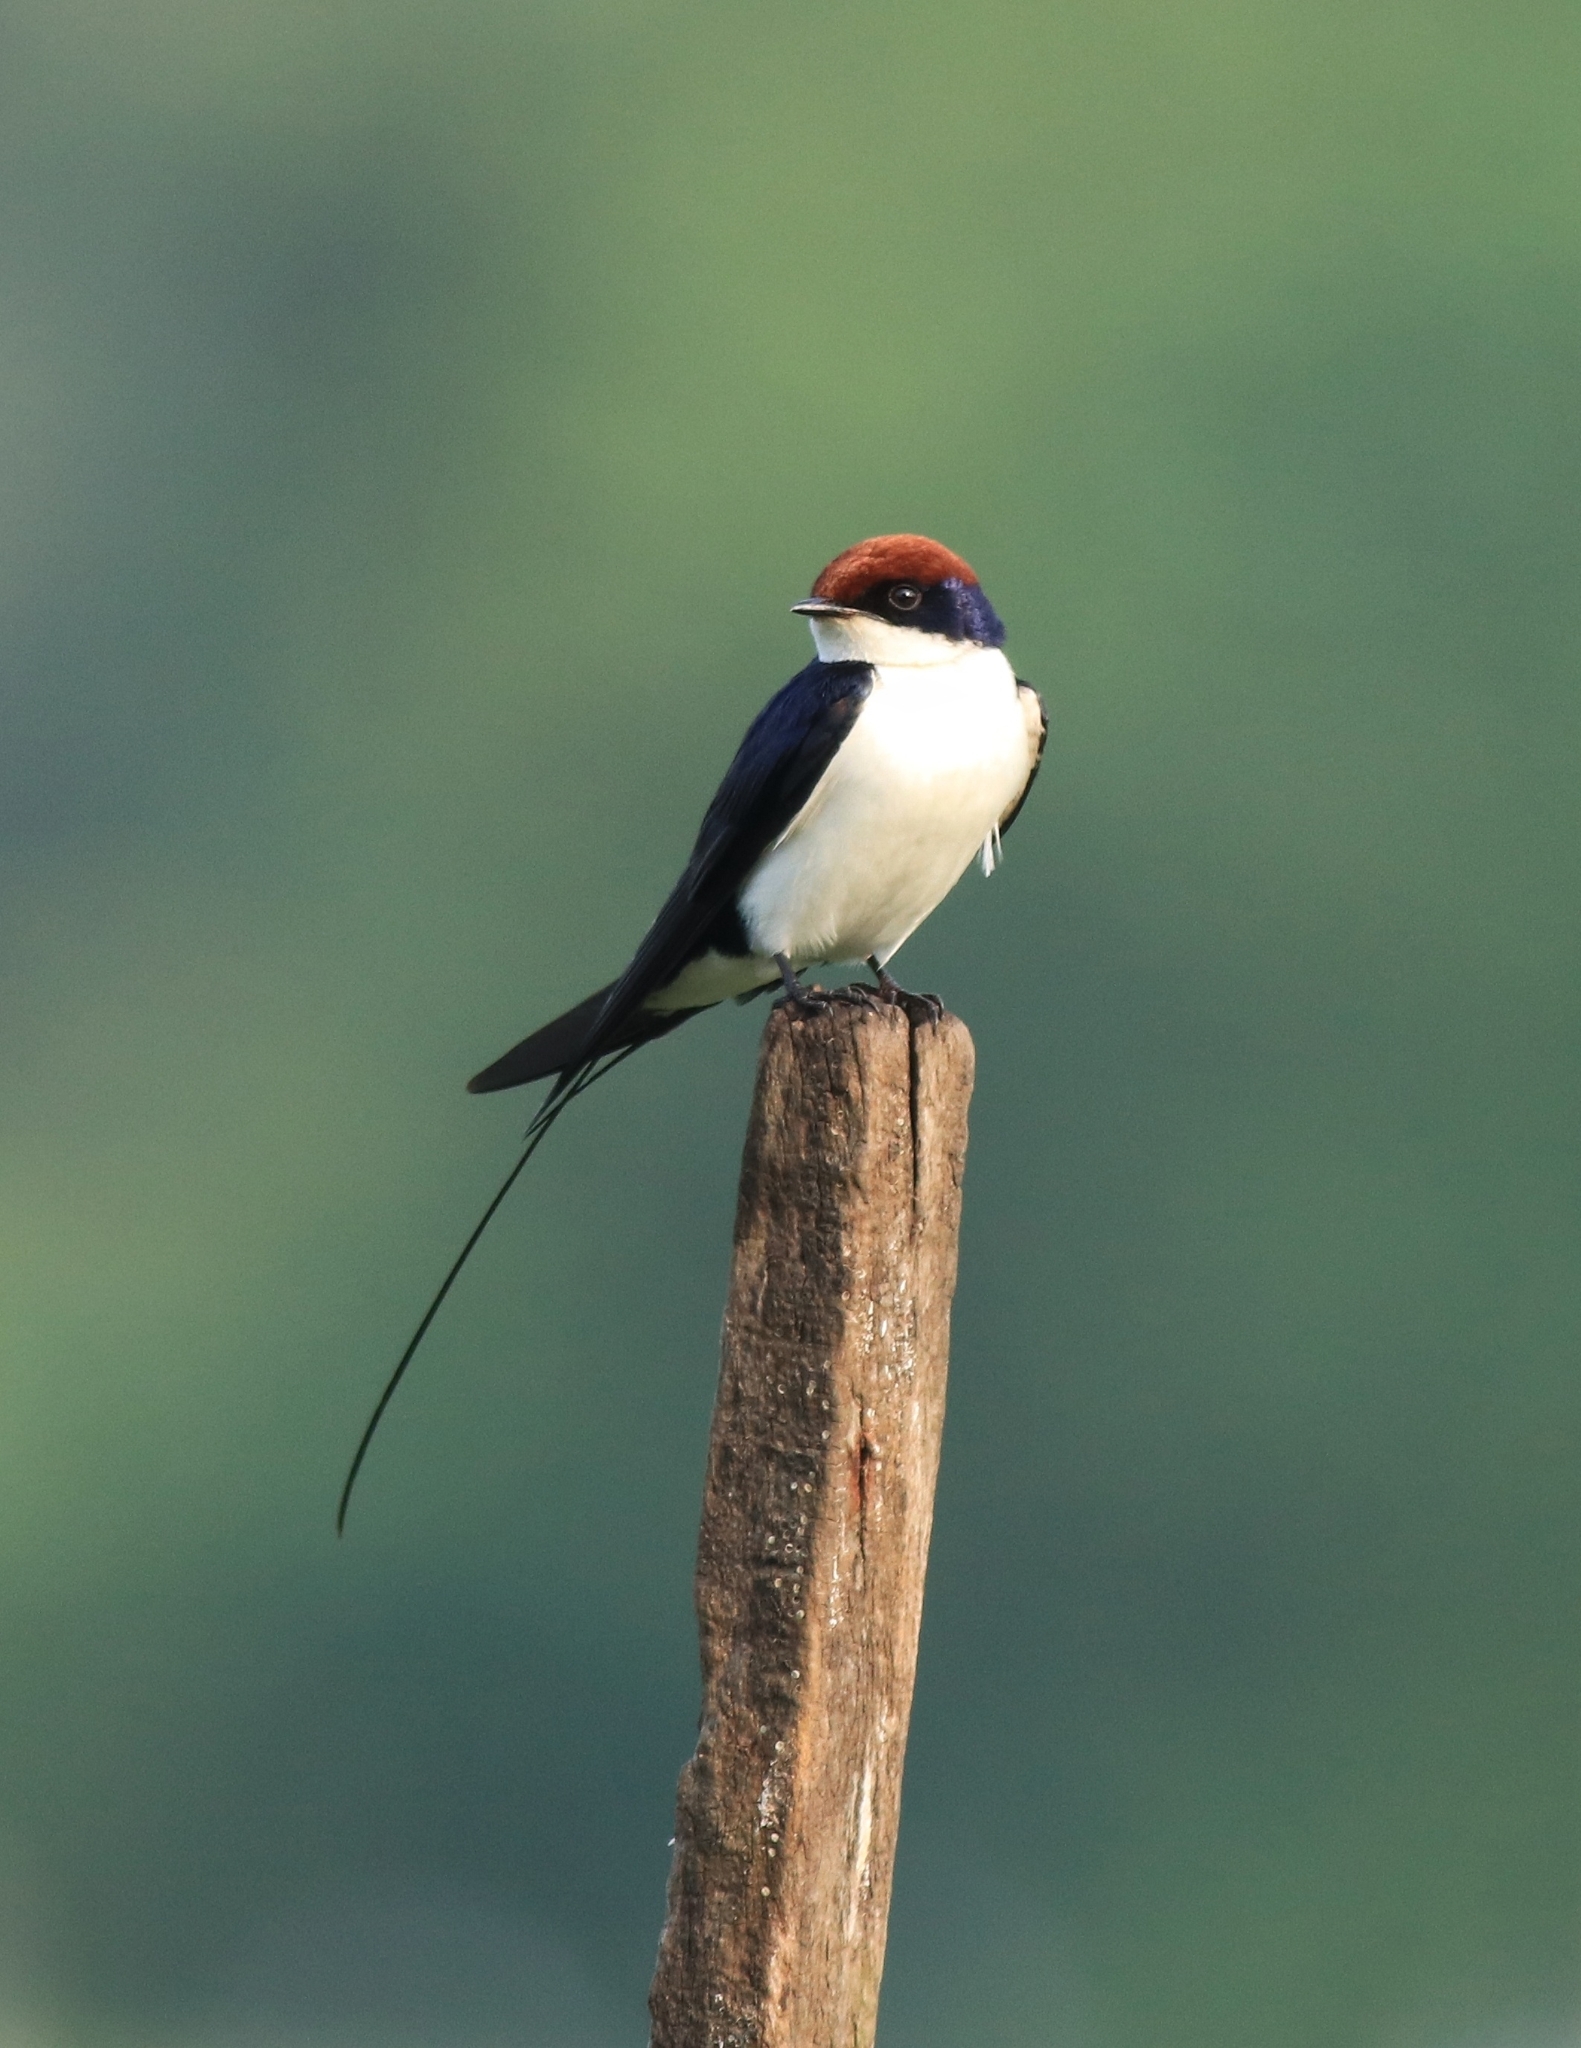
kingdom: Animalia
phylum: Chordata
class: Aves
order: Passeriformes
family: Hirundinidae
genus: Hirundo
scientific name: Hirundo smithii
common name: Wire-tailed swallow
